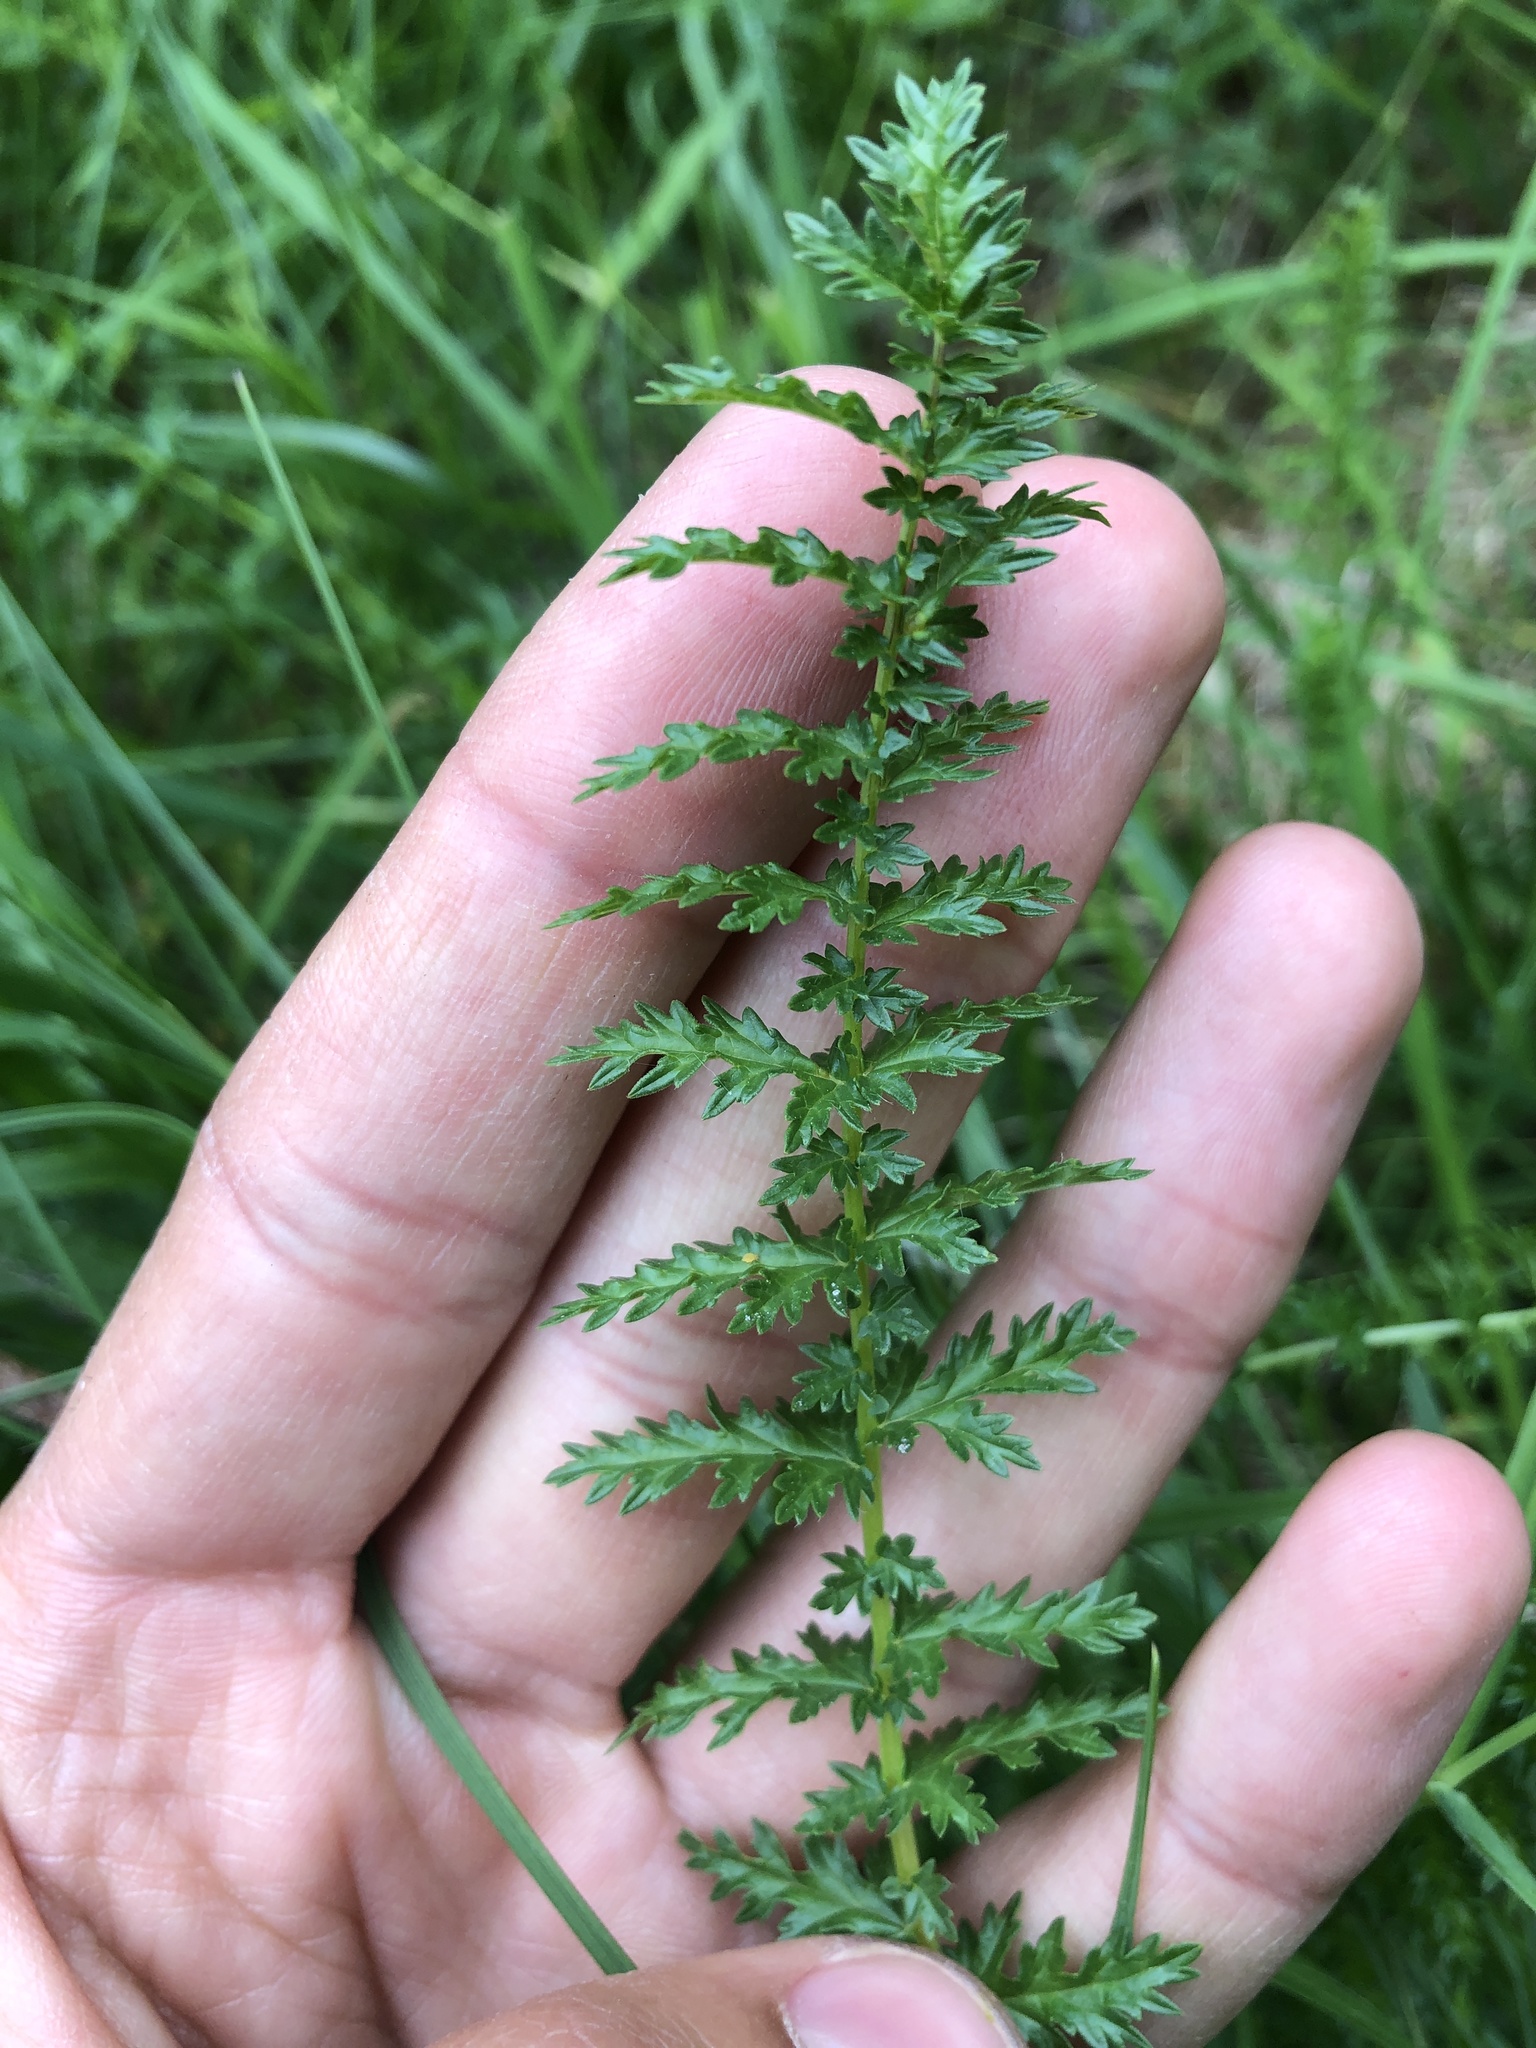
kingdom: Plantae
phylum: Tracheophyta
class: Magnoliopsida
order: Rosales
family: Rosaceae
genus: Filipendula
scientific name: Filipendula vulgaris
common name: Dropwort
